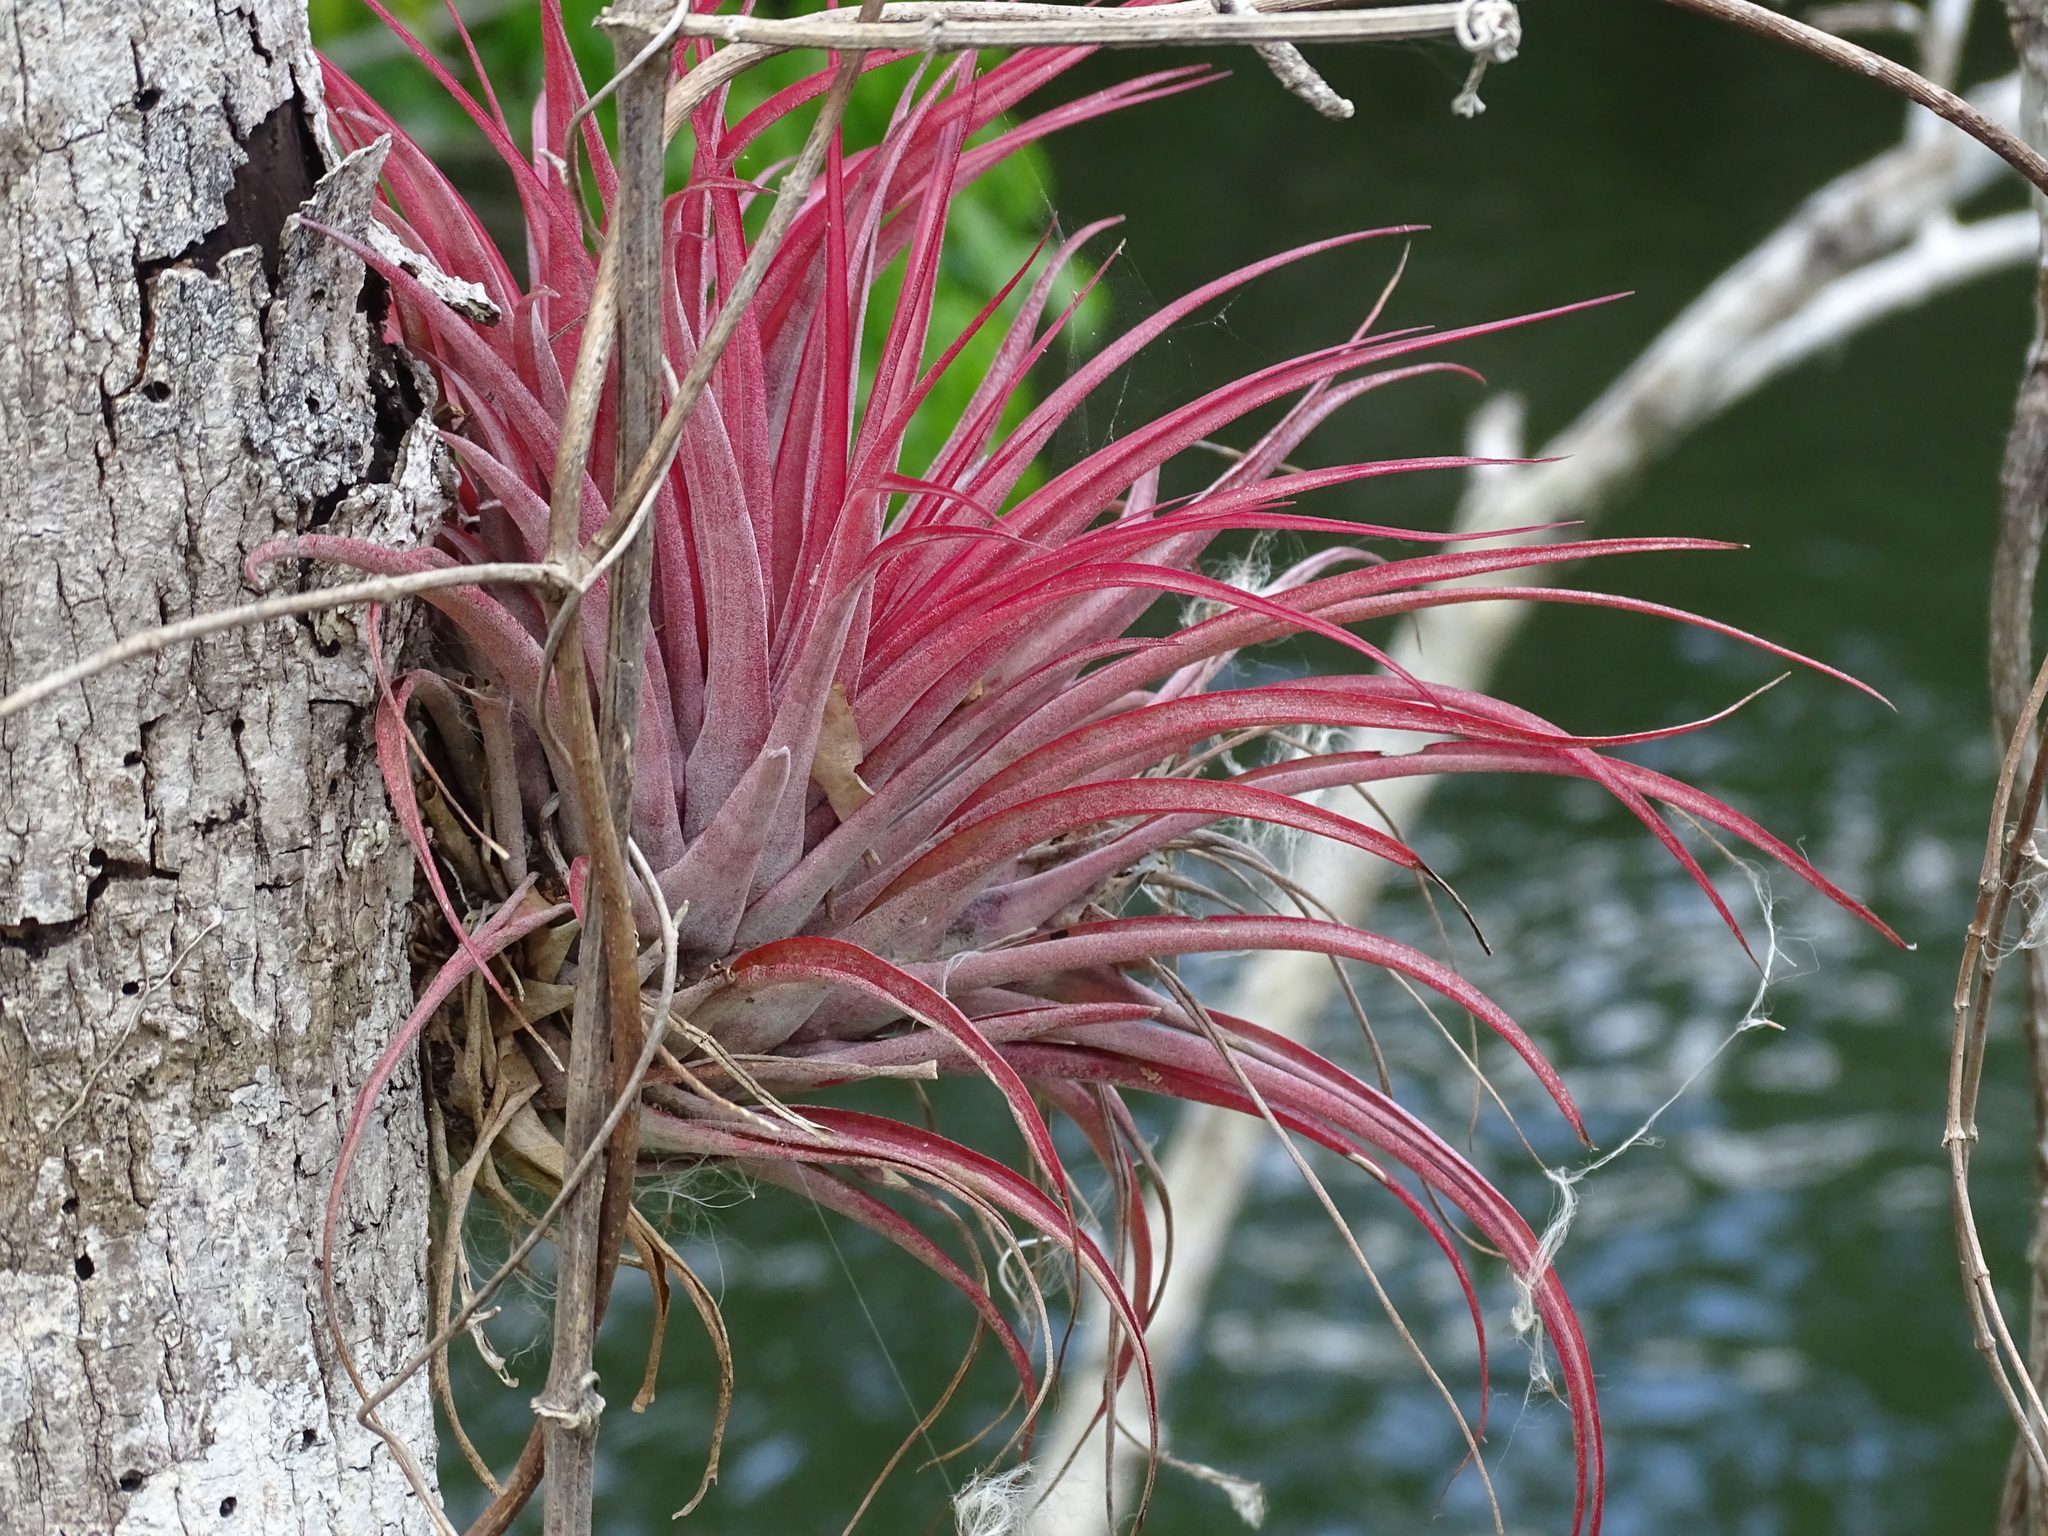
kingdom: Plantae
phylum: Tracheophyta
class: Liliopsida
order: Poales
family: Bromeliaceae
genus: Tillandsia
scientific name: Tillandsia brachycaulos
